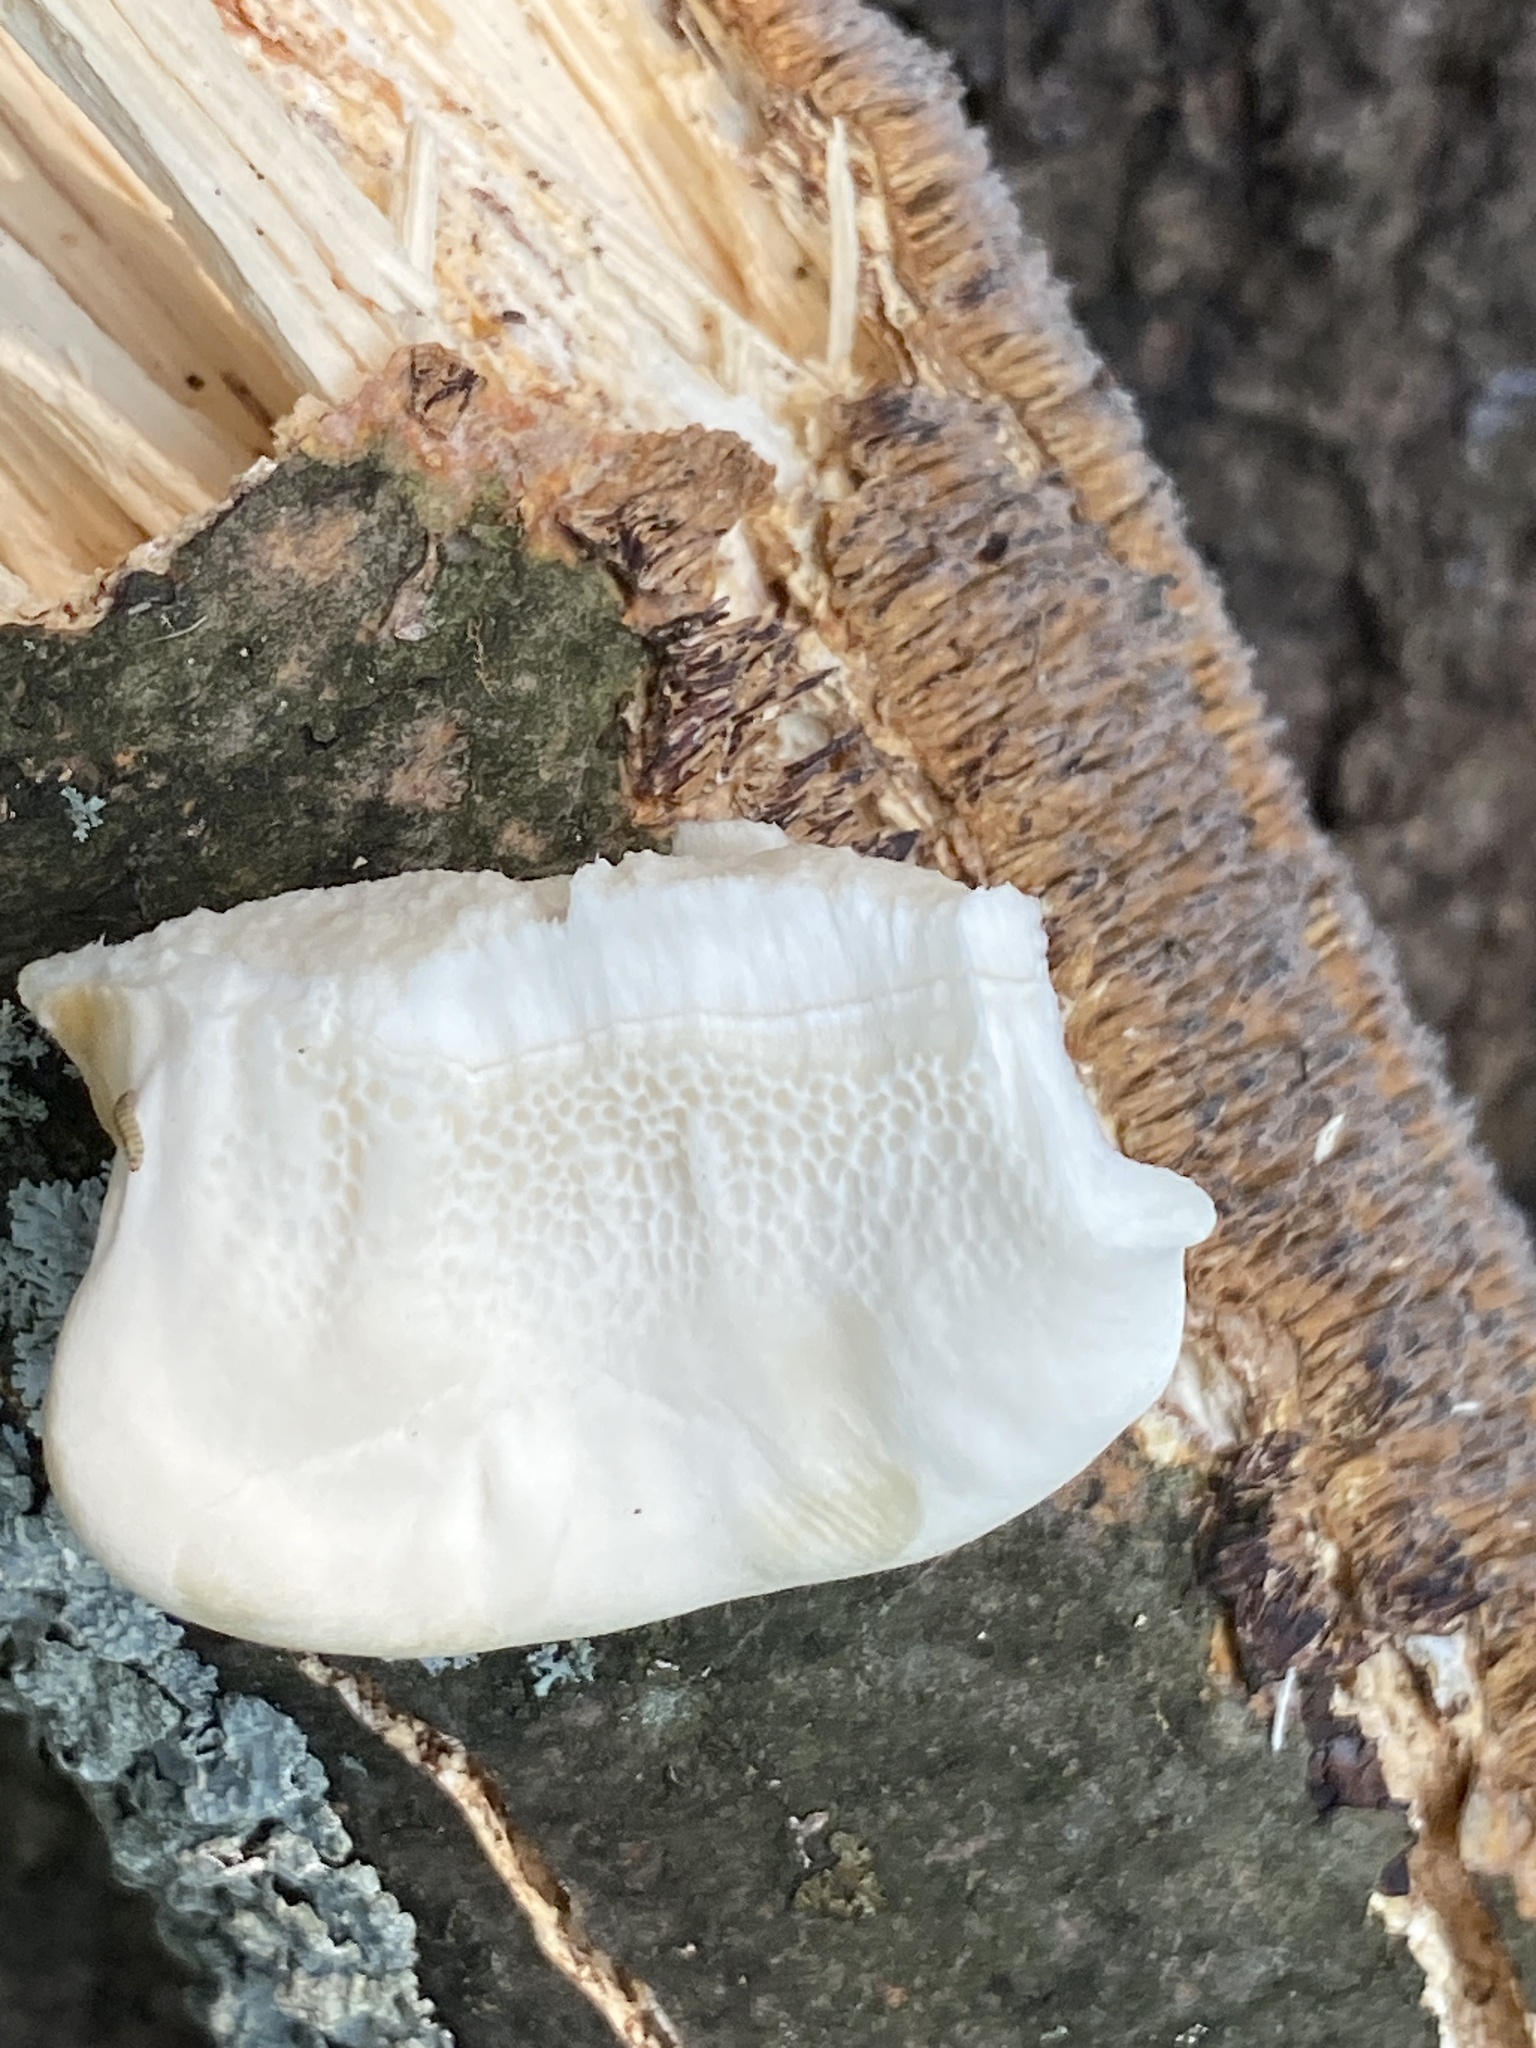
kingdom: Fungi
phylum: Basidiomycota
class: Agaricomycetes
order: Russulales
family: Bondarzewiaceae
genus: Bondarzewia
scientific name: Bondarzewia berkeleyi
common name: Berkeley's polypore
